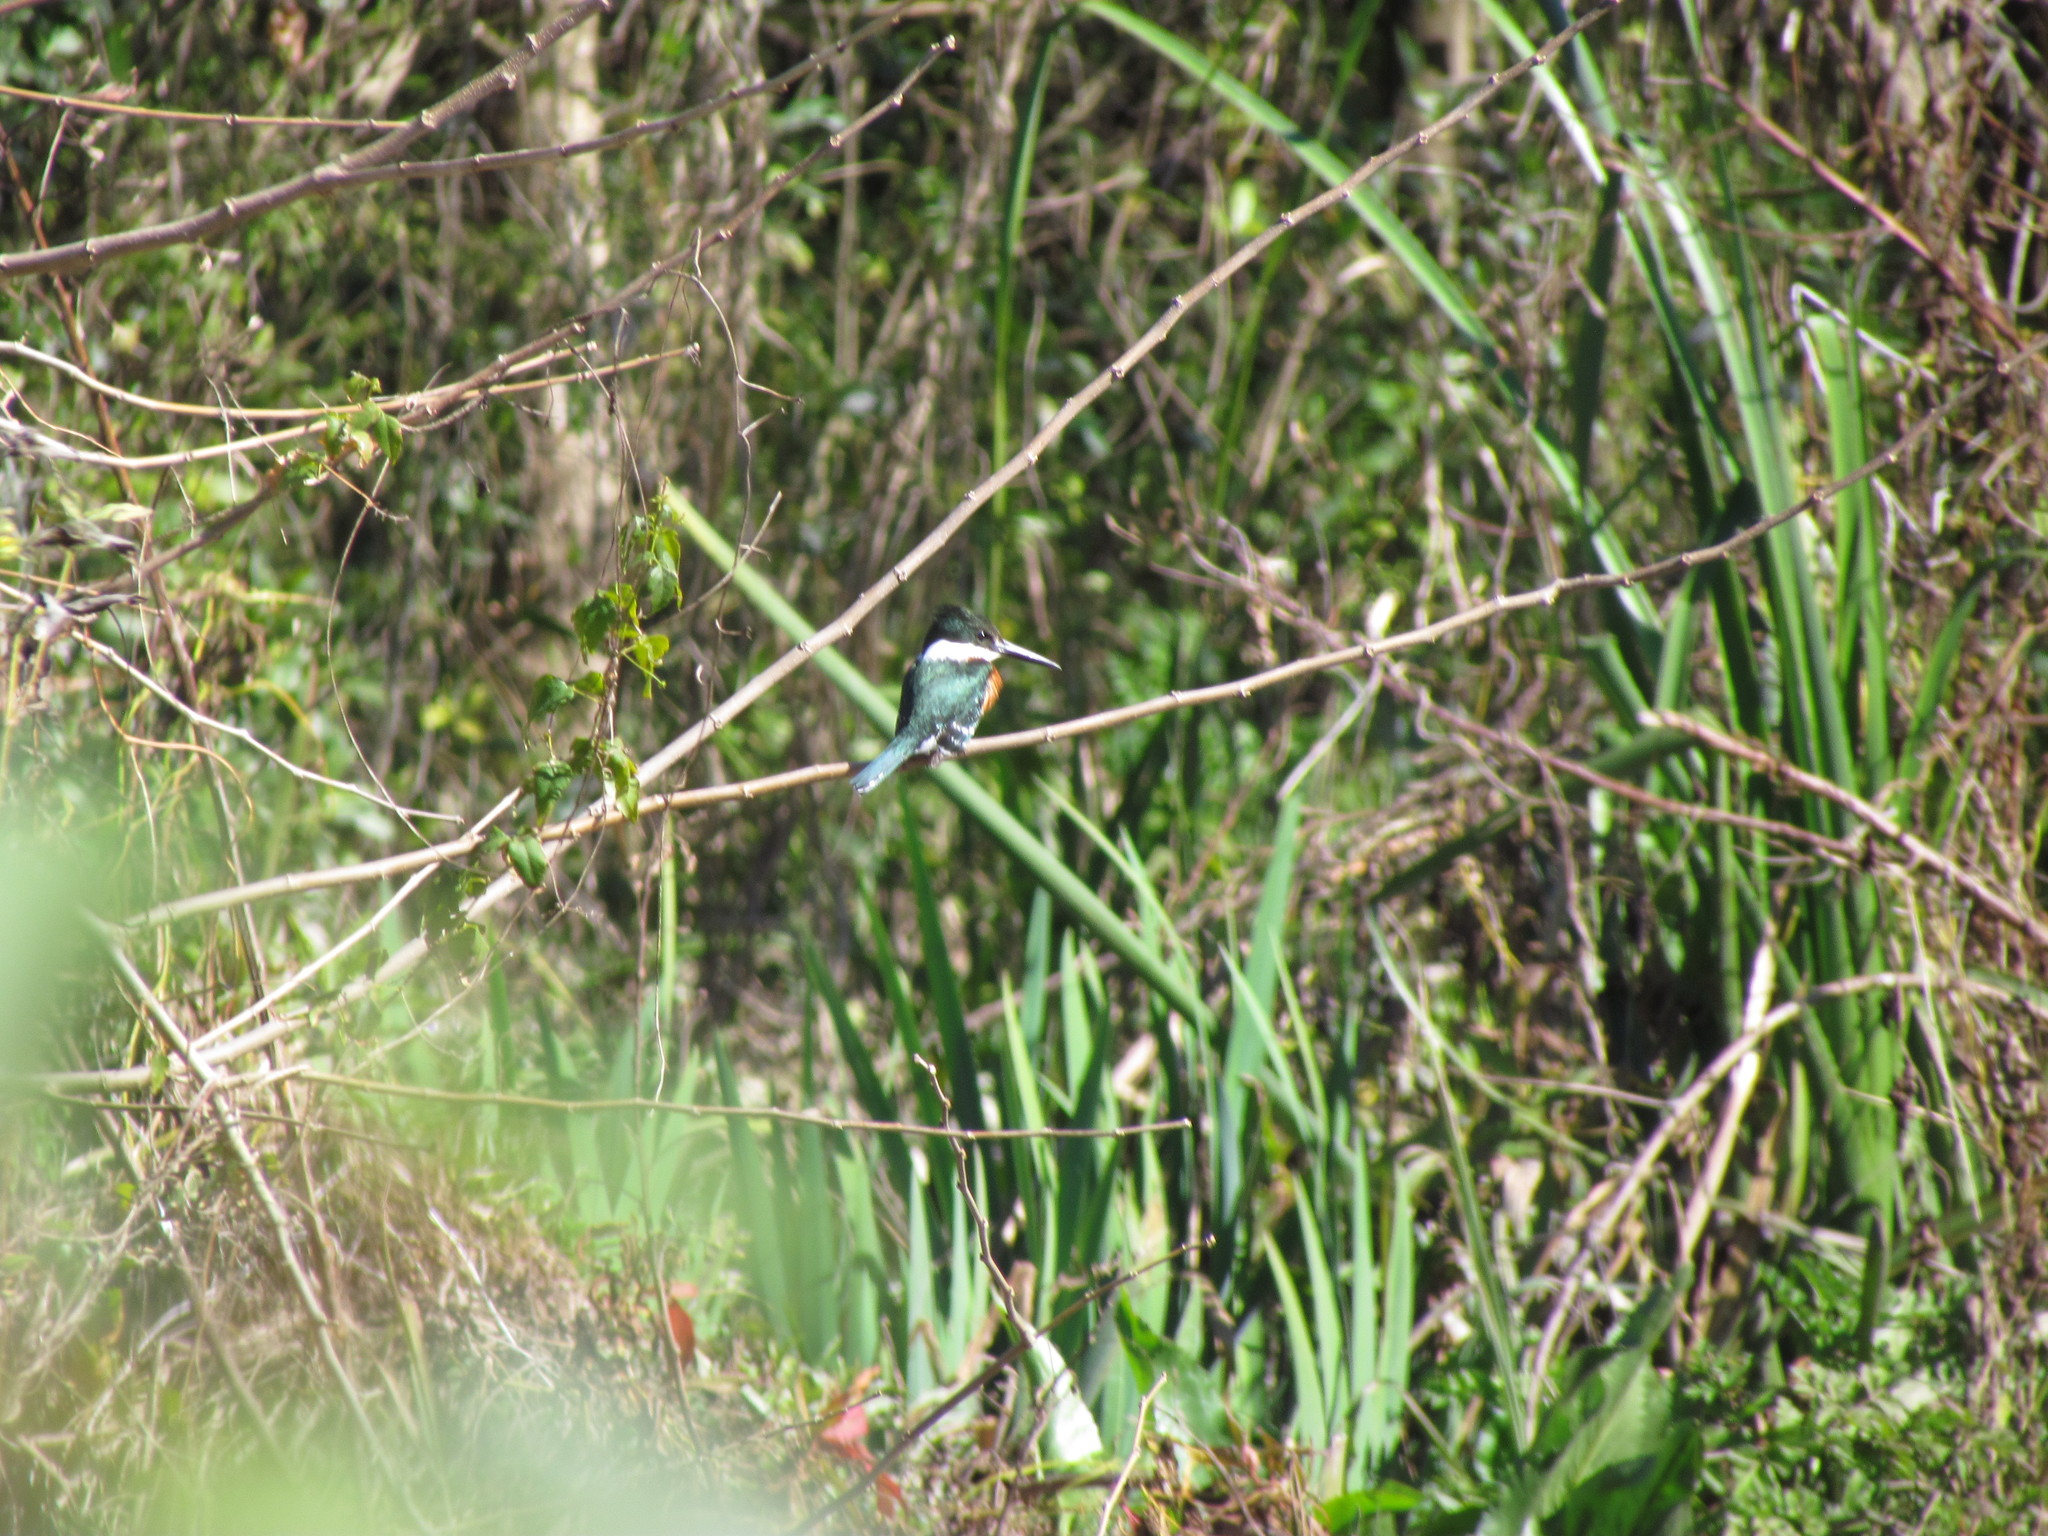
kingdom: Animalia
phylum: Chordata
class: Aves
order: Coraciiformes
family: Alcedinidae
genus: Chloroceryle
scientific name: Chloroceryle americana
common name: Green kingfisher
